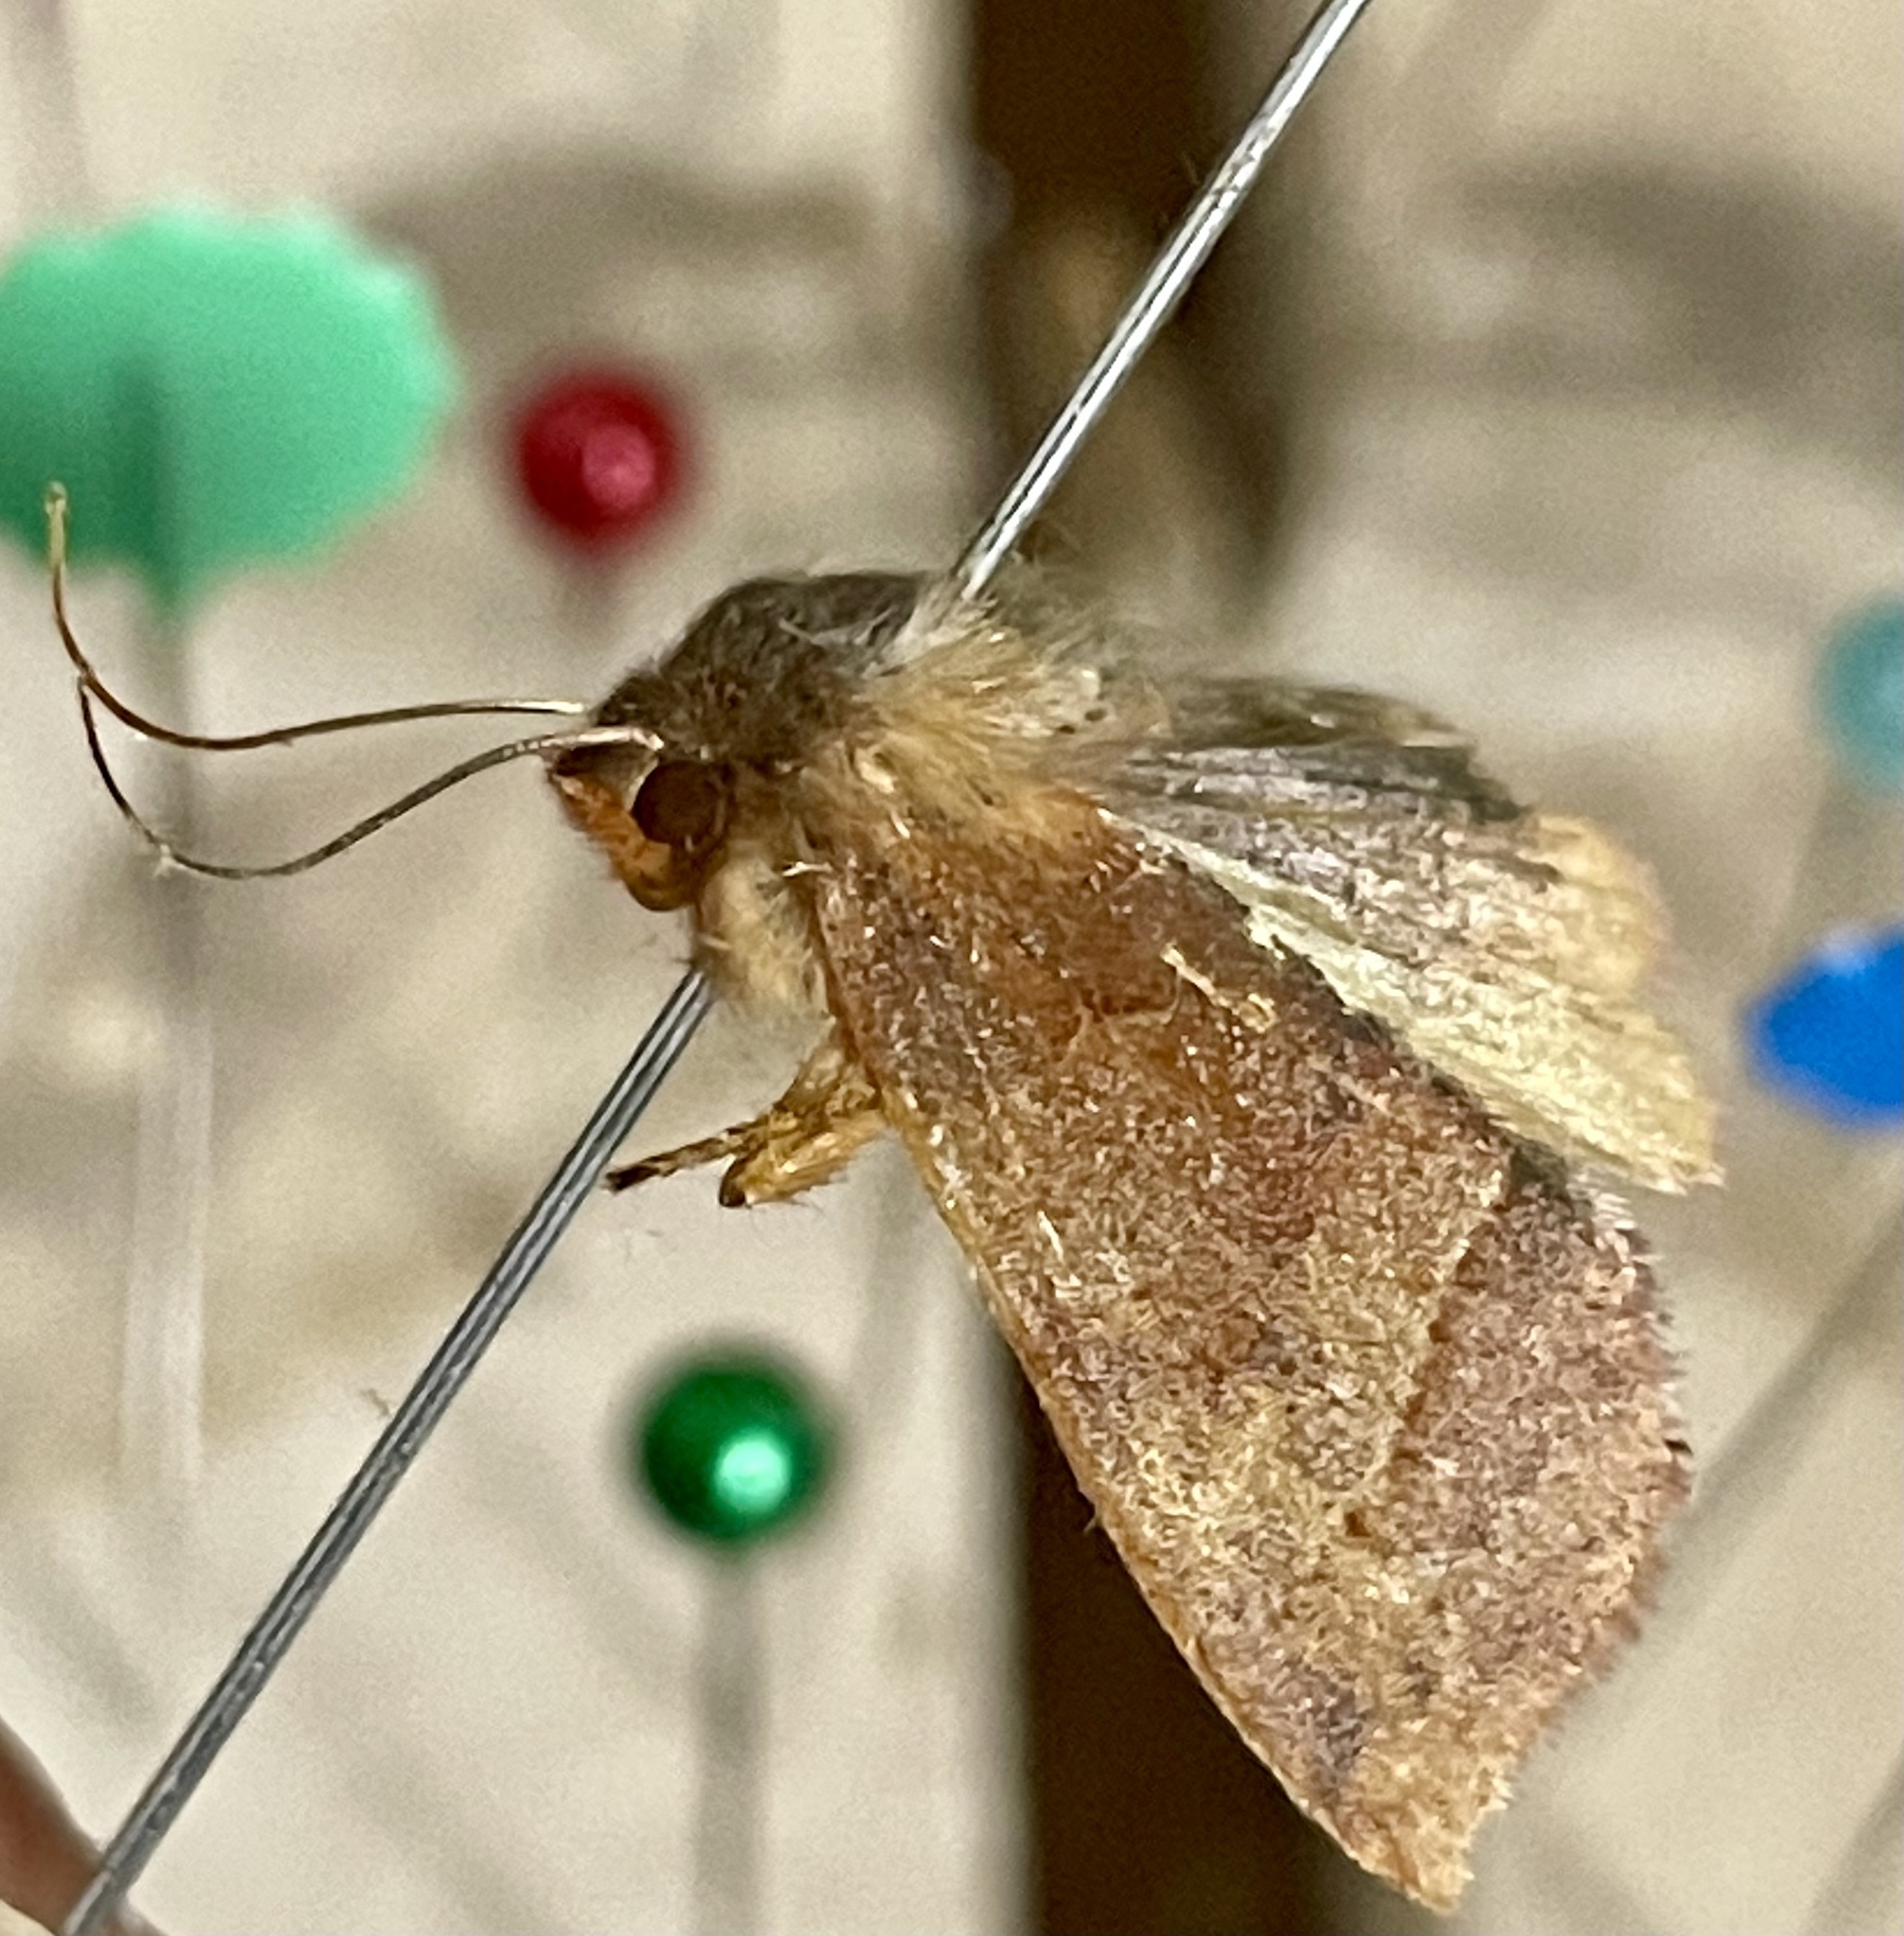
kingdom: Animalia
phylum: Arthropoda
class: Insecta
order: Lepidoptera
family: Noctuidae
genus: Telorta
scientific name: Telorta edentata
